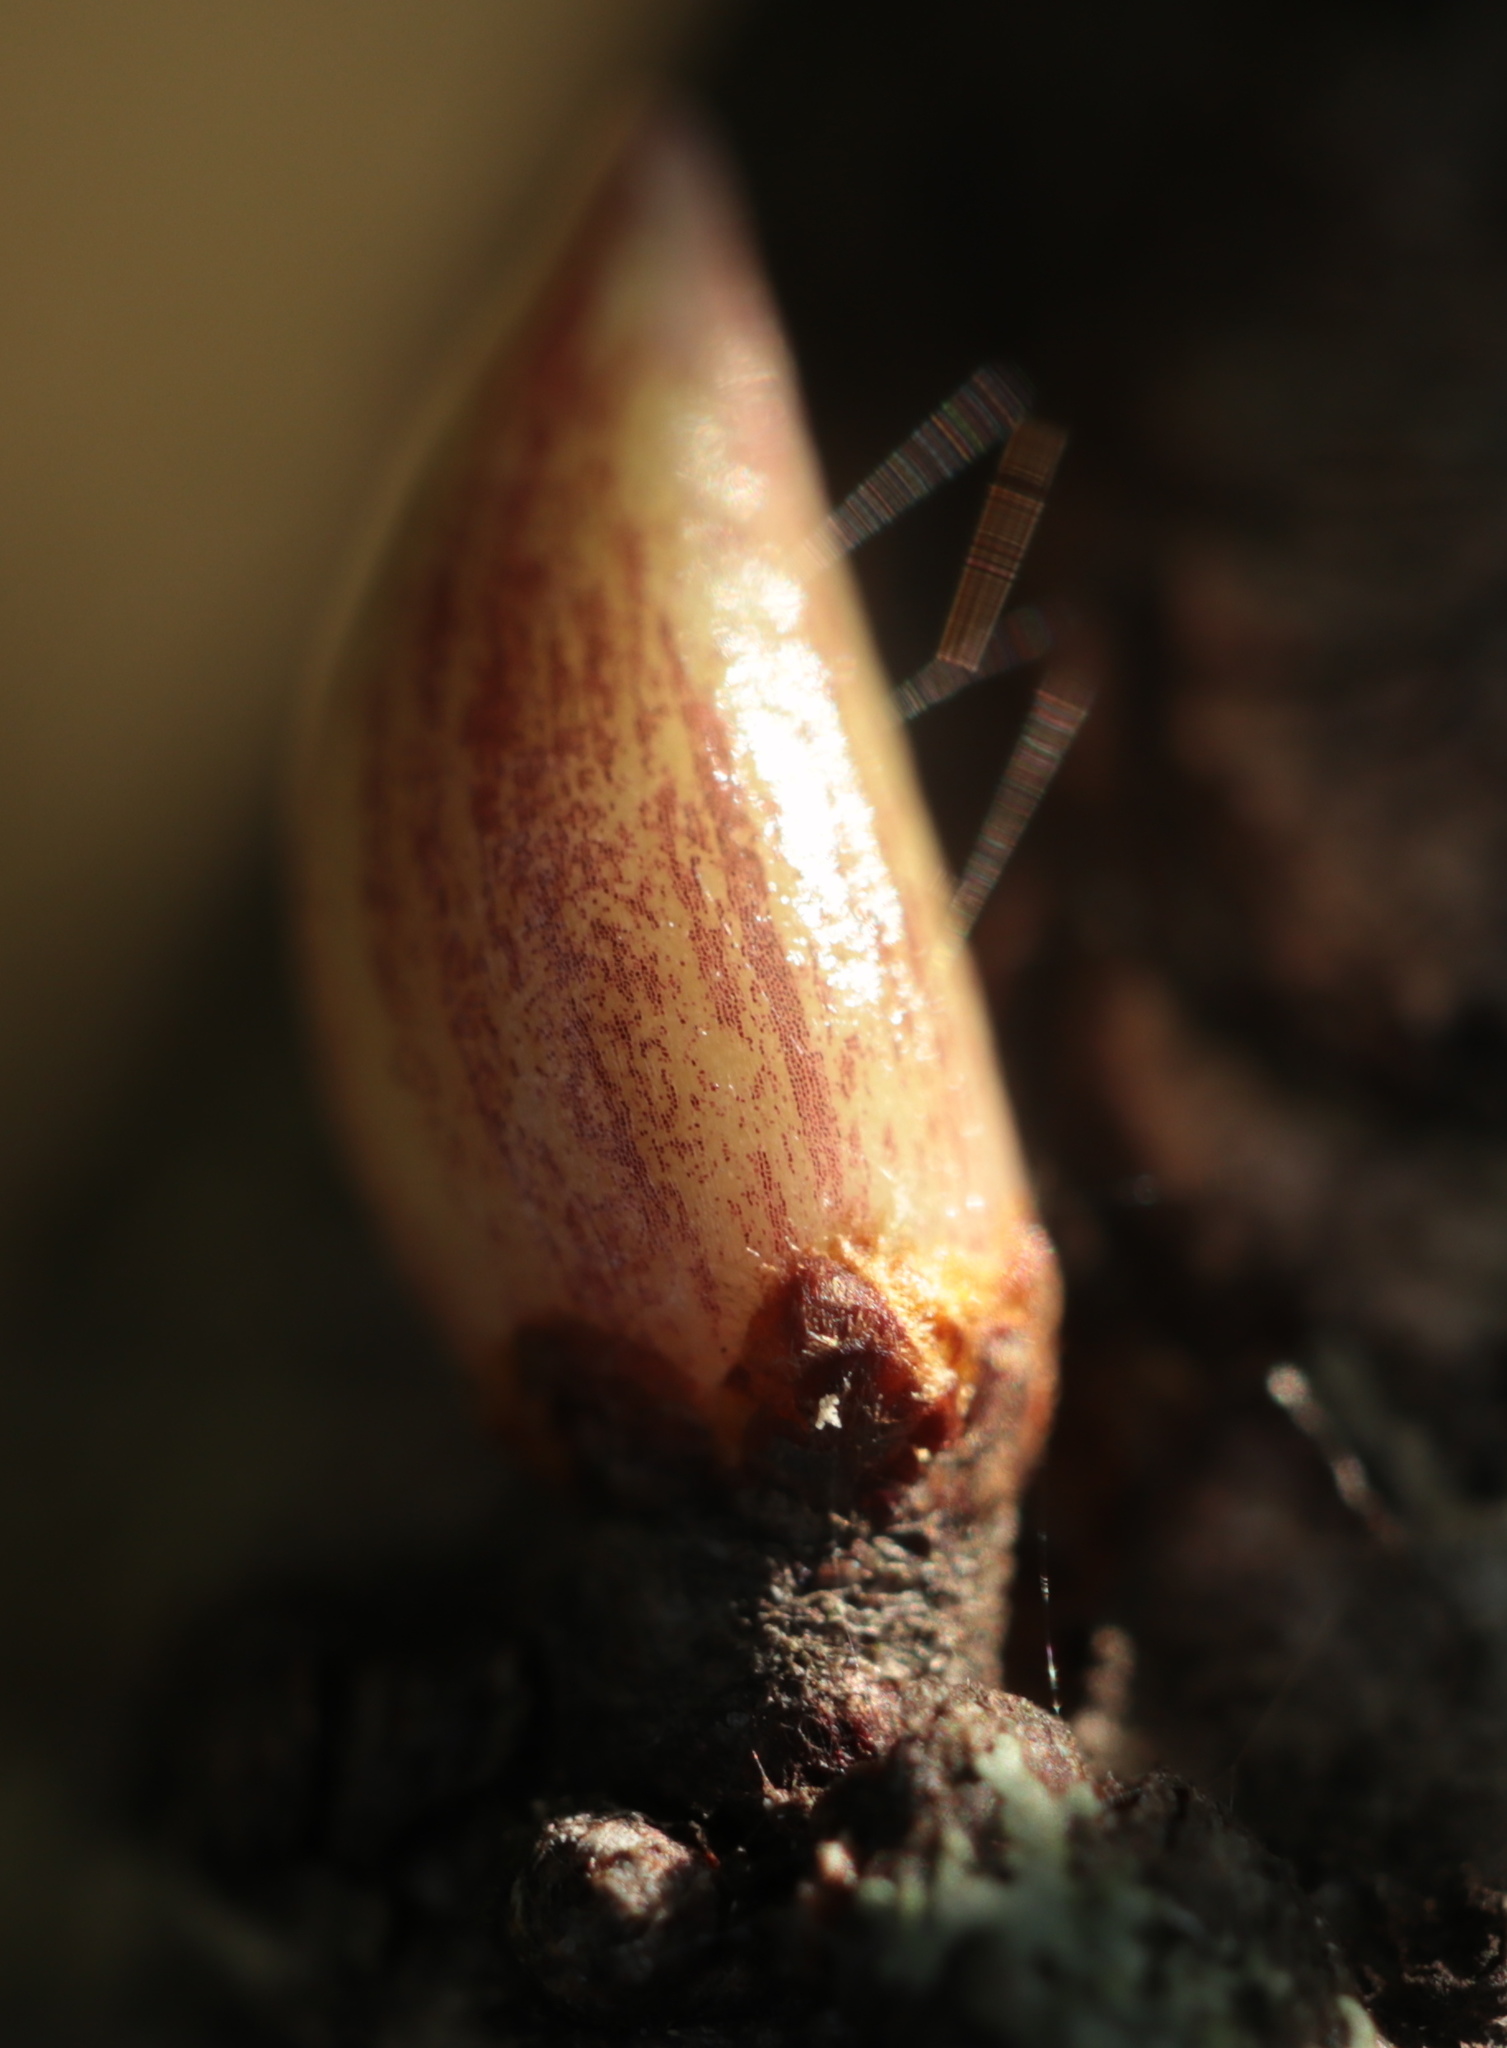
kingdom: Animalia
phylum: Arthropoda
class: Insecta
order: Hymenoptera
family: Cynipidae
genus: Andricus
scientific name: Andricus
